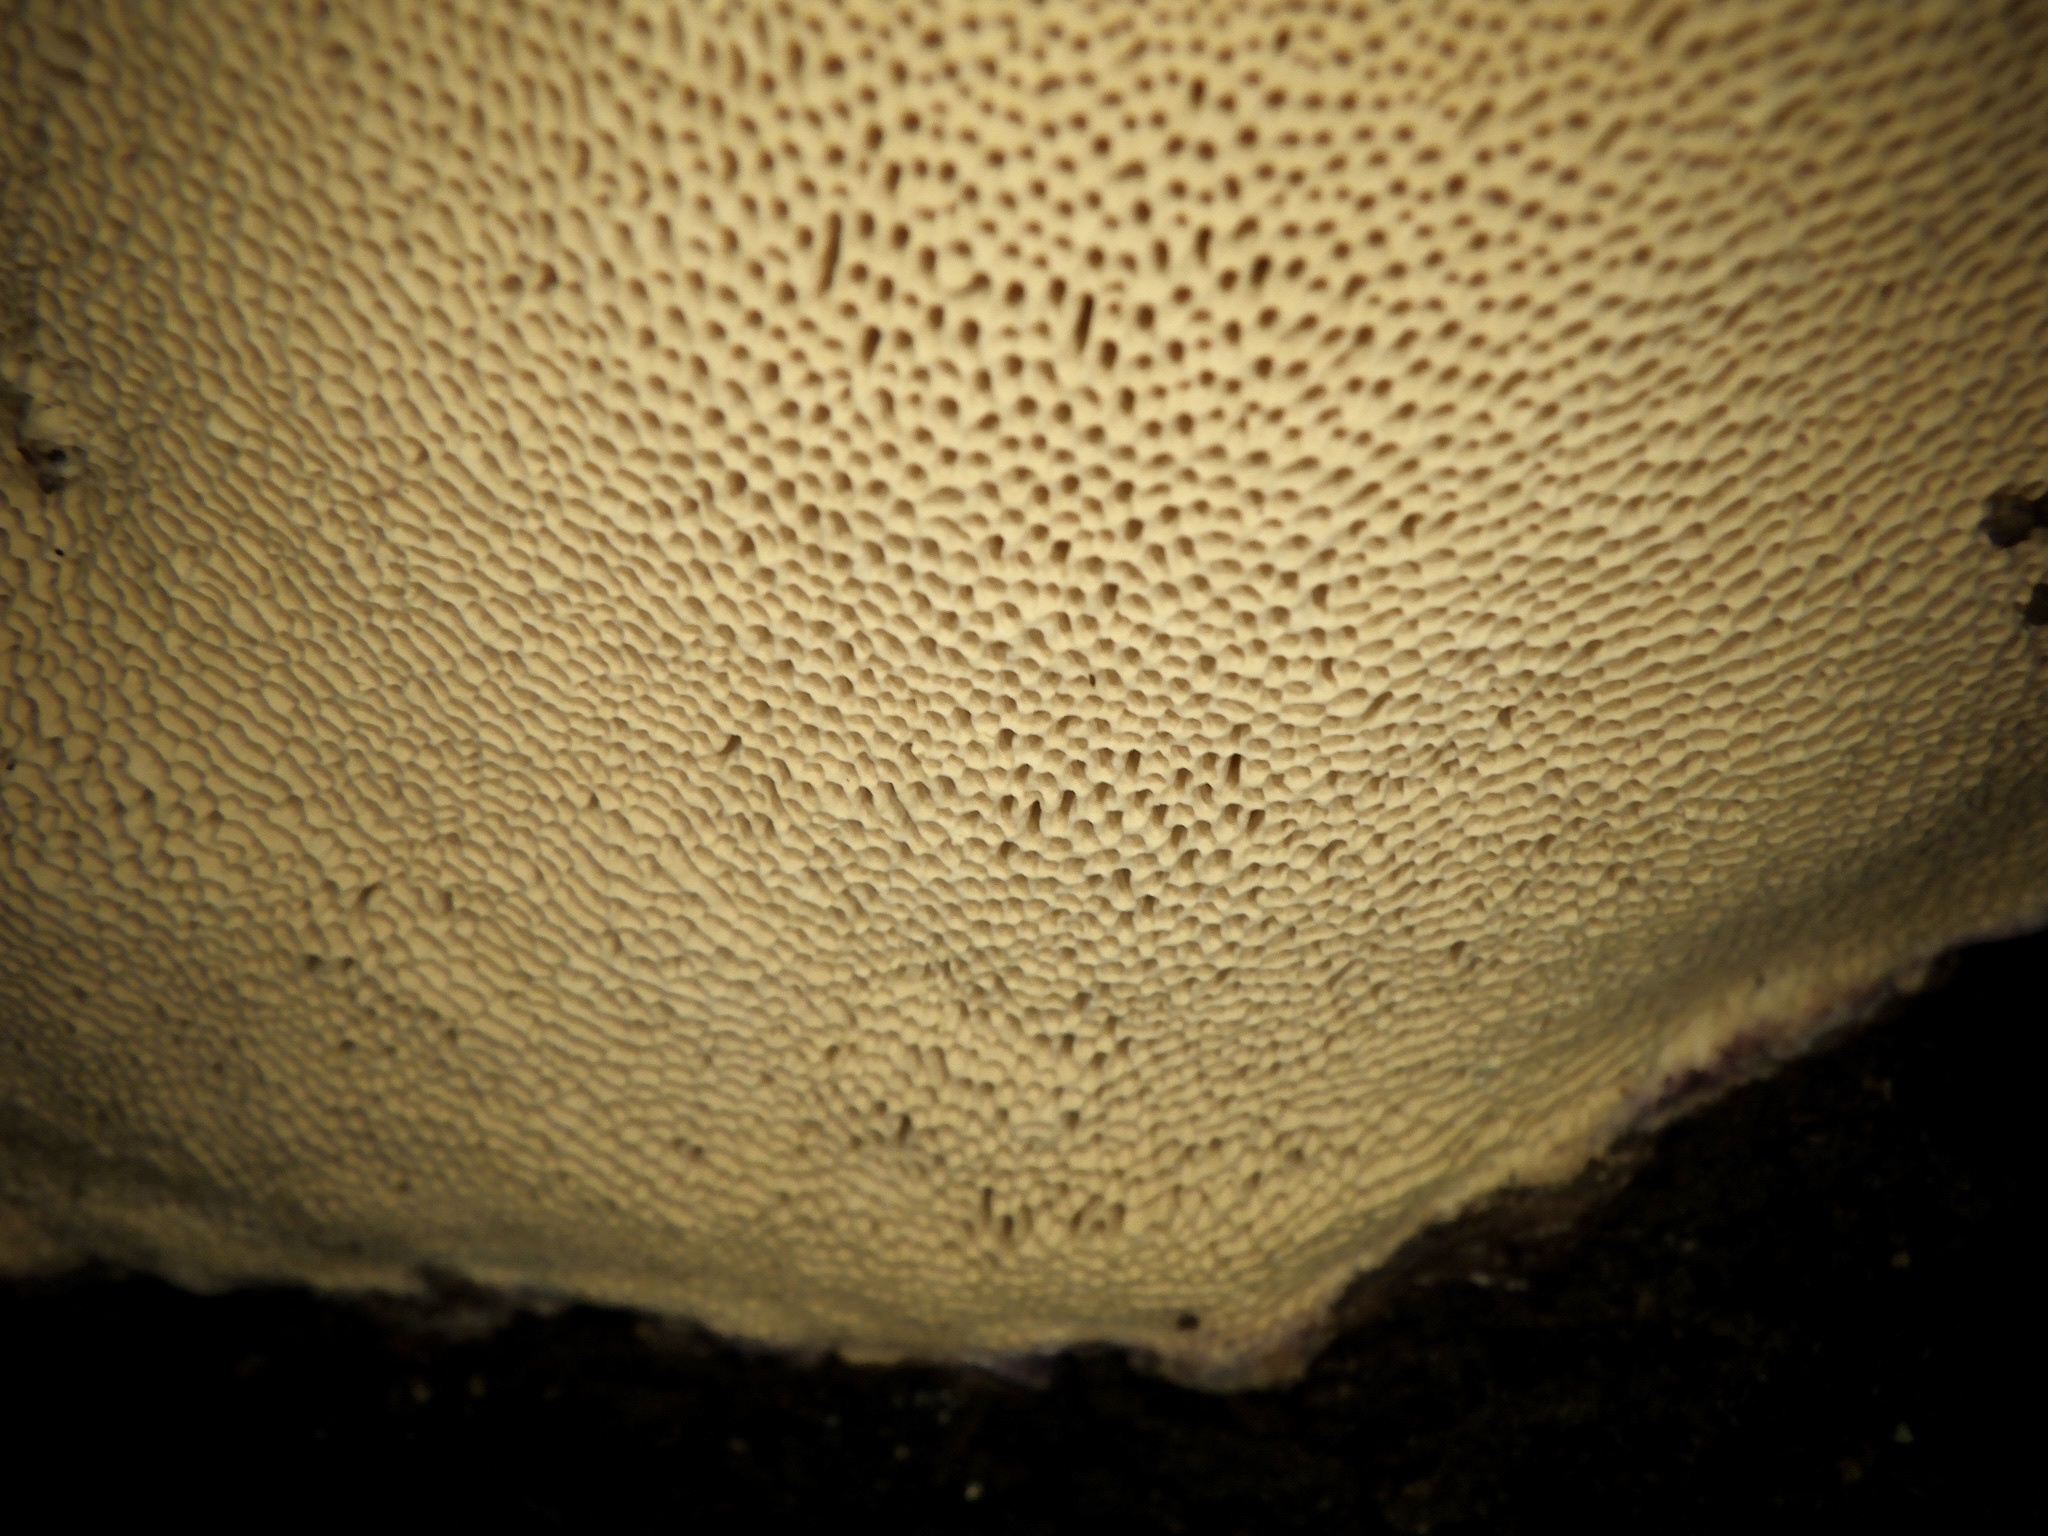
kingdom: Fungi
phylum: Basidiomycota
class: Agaricomycetes
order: Polyporales
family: Fomitopsidaceae
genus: Fomitopsis
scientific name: Fomitopsis
